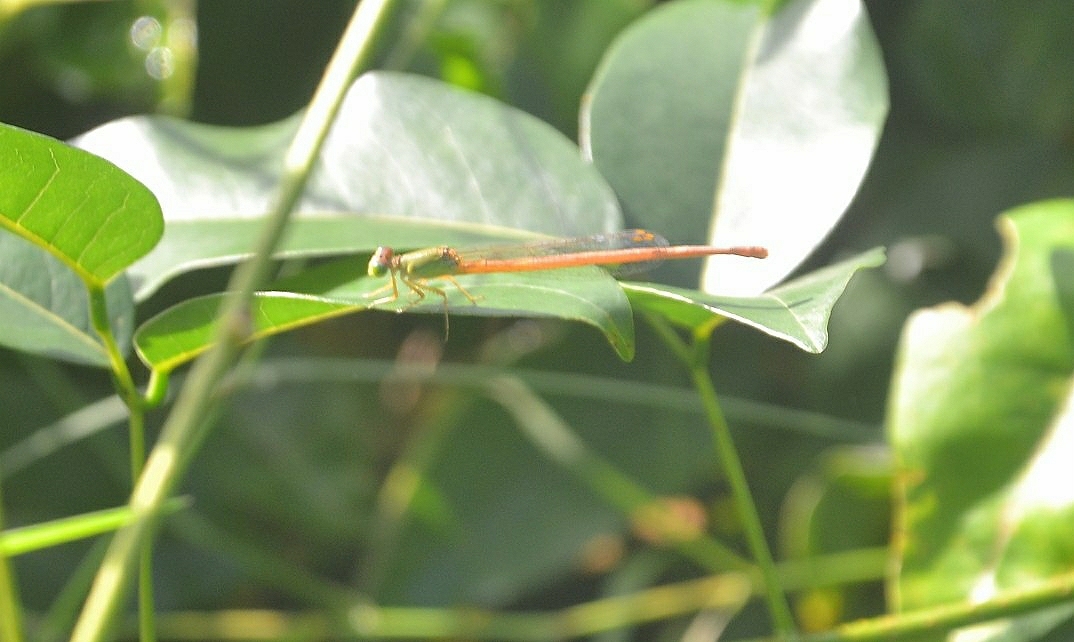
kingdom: Animalia
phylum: Arthropoda
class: Insecta
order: Odonata
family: Coenagrionidae
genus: Ceriagrion
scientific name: Ceriagrion coromandelianum
